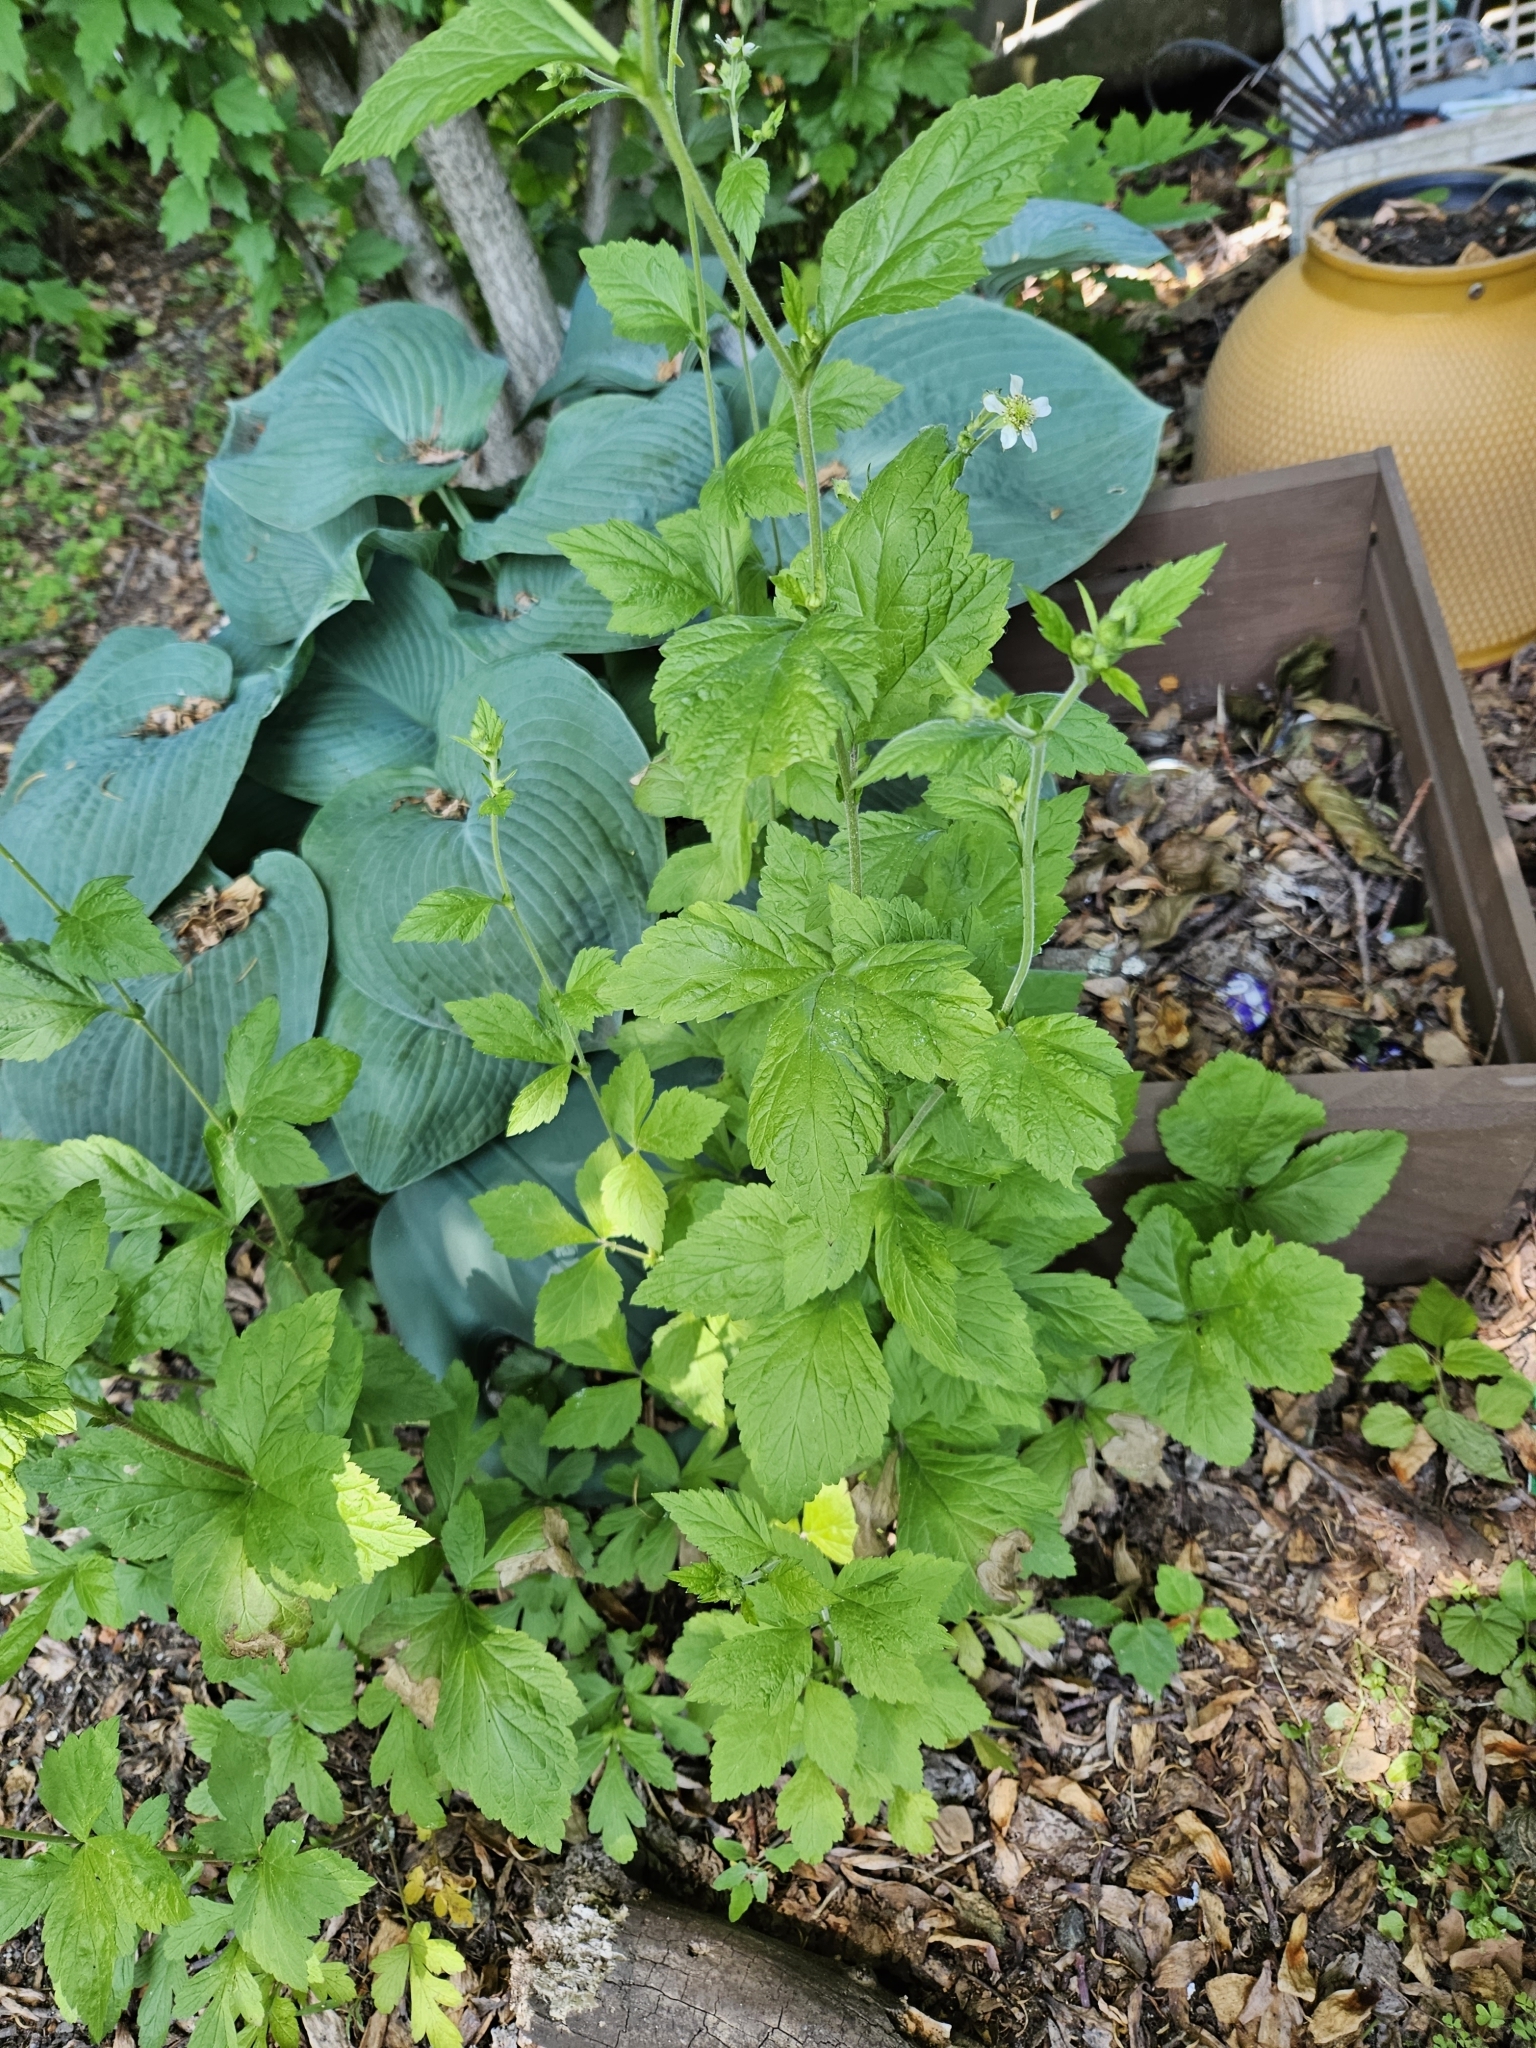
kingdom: Plantae
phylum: Tracheophyta
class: Magnoliopsida
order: Rosales
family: Rosaceae
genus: Geum
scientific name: Geum canadense
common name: White avens
